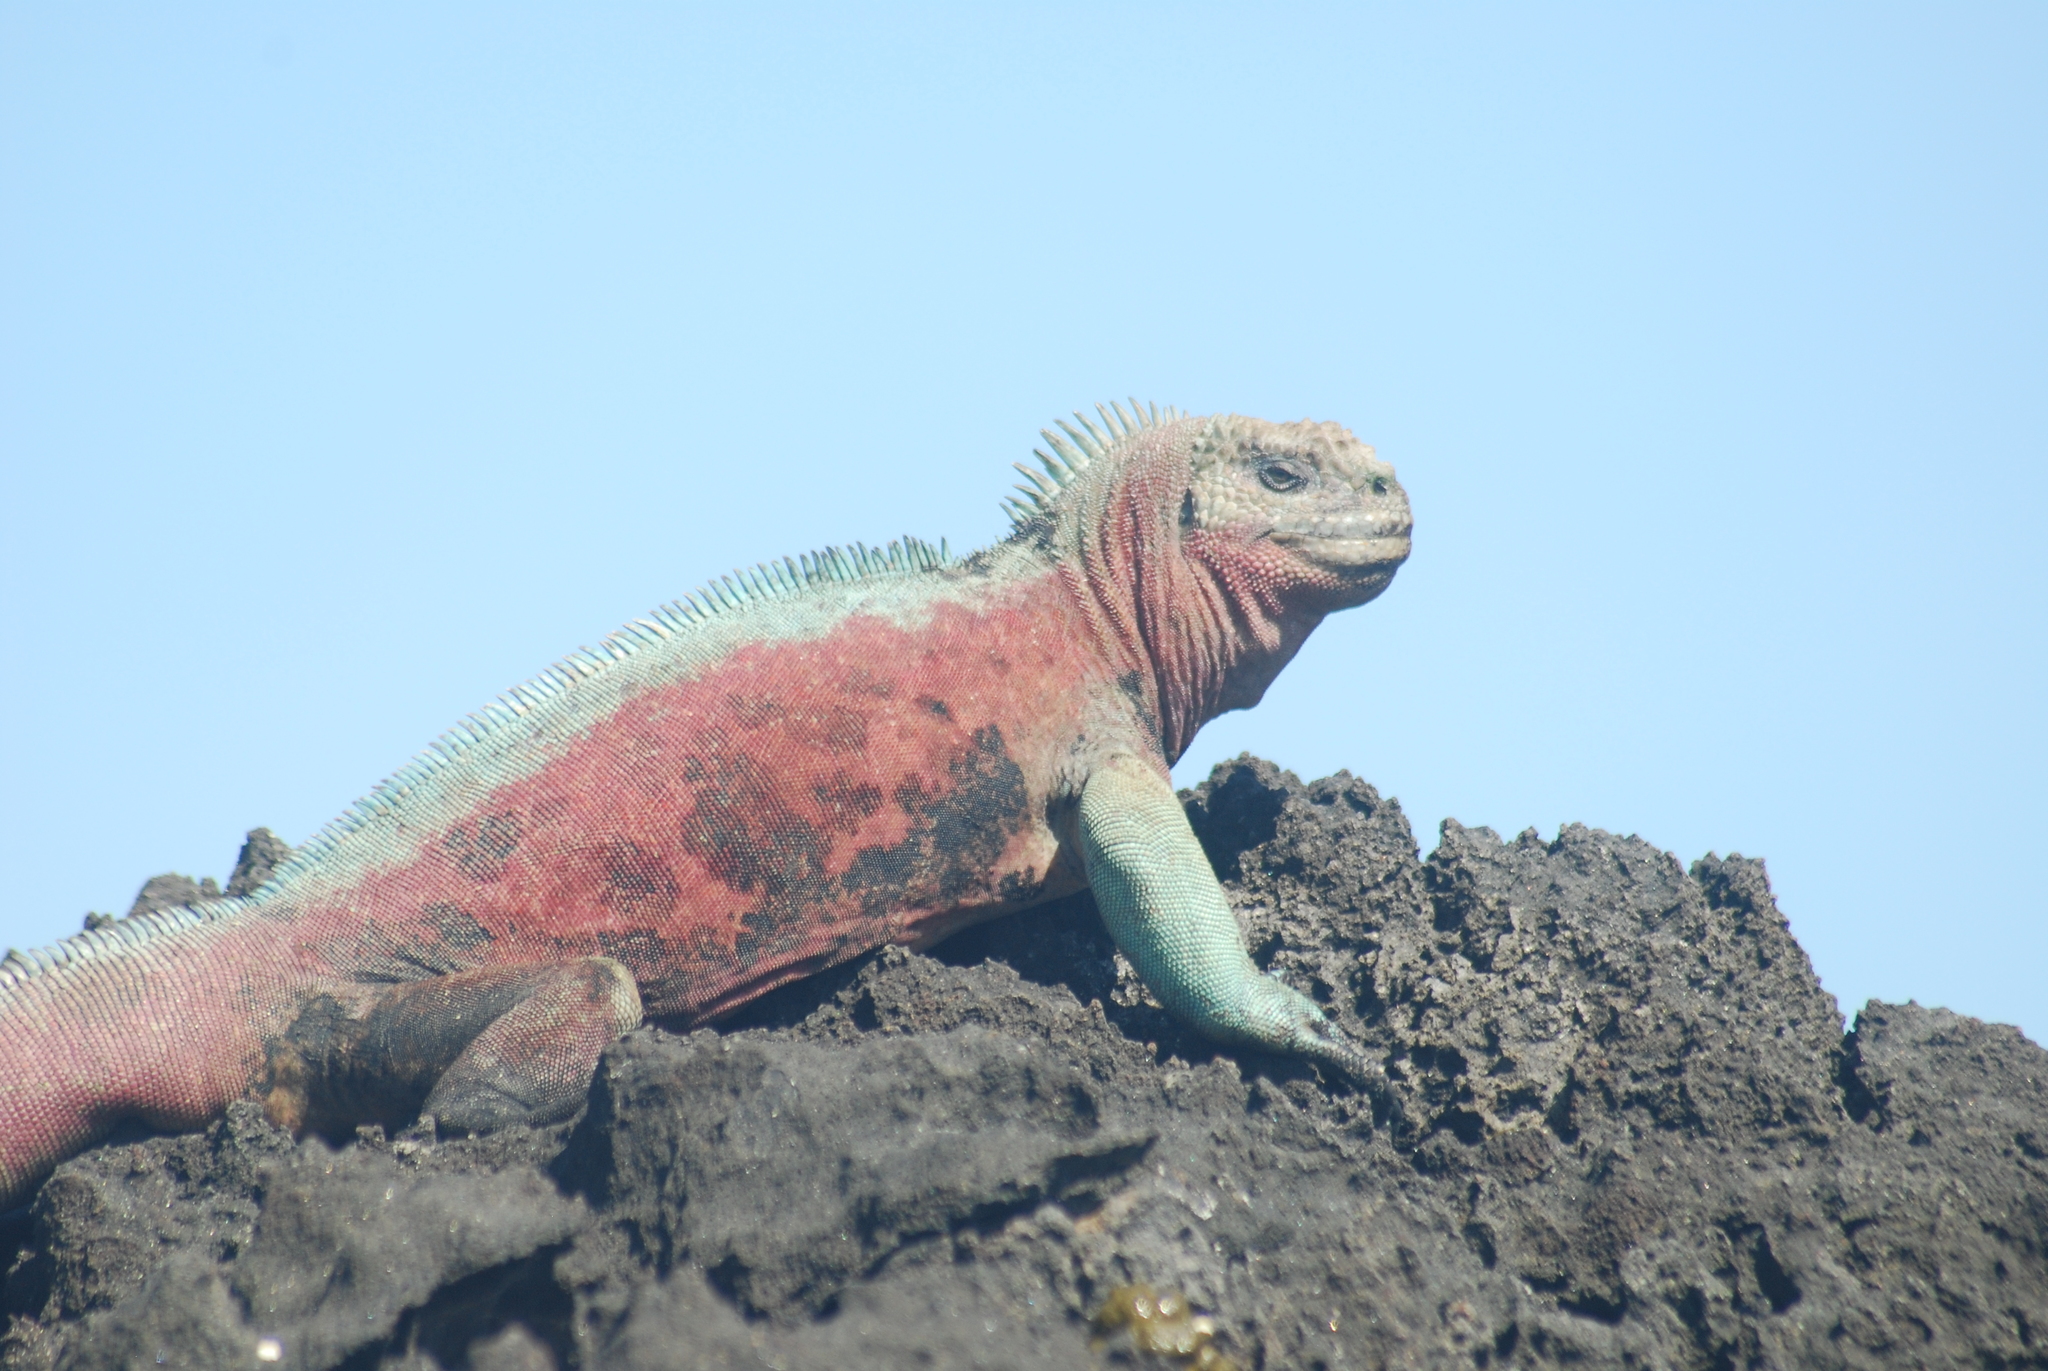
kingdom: Animalia
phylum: Chordata
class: Squamata
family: Iguanidae
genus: Amblyrhynchus
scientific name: Amblyrhynchus cristatus
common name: Marine iguana
